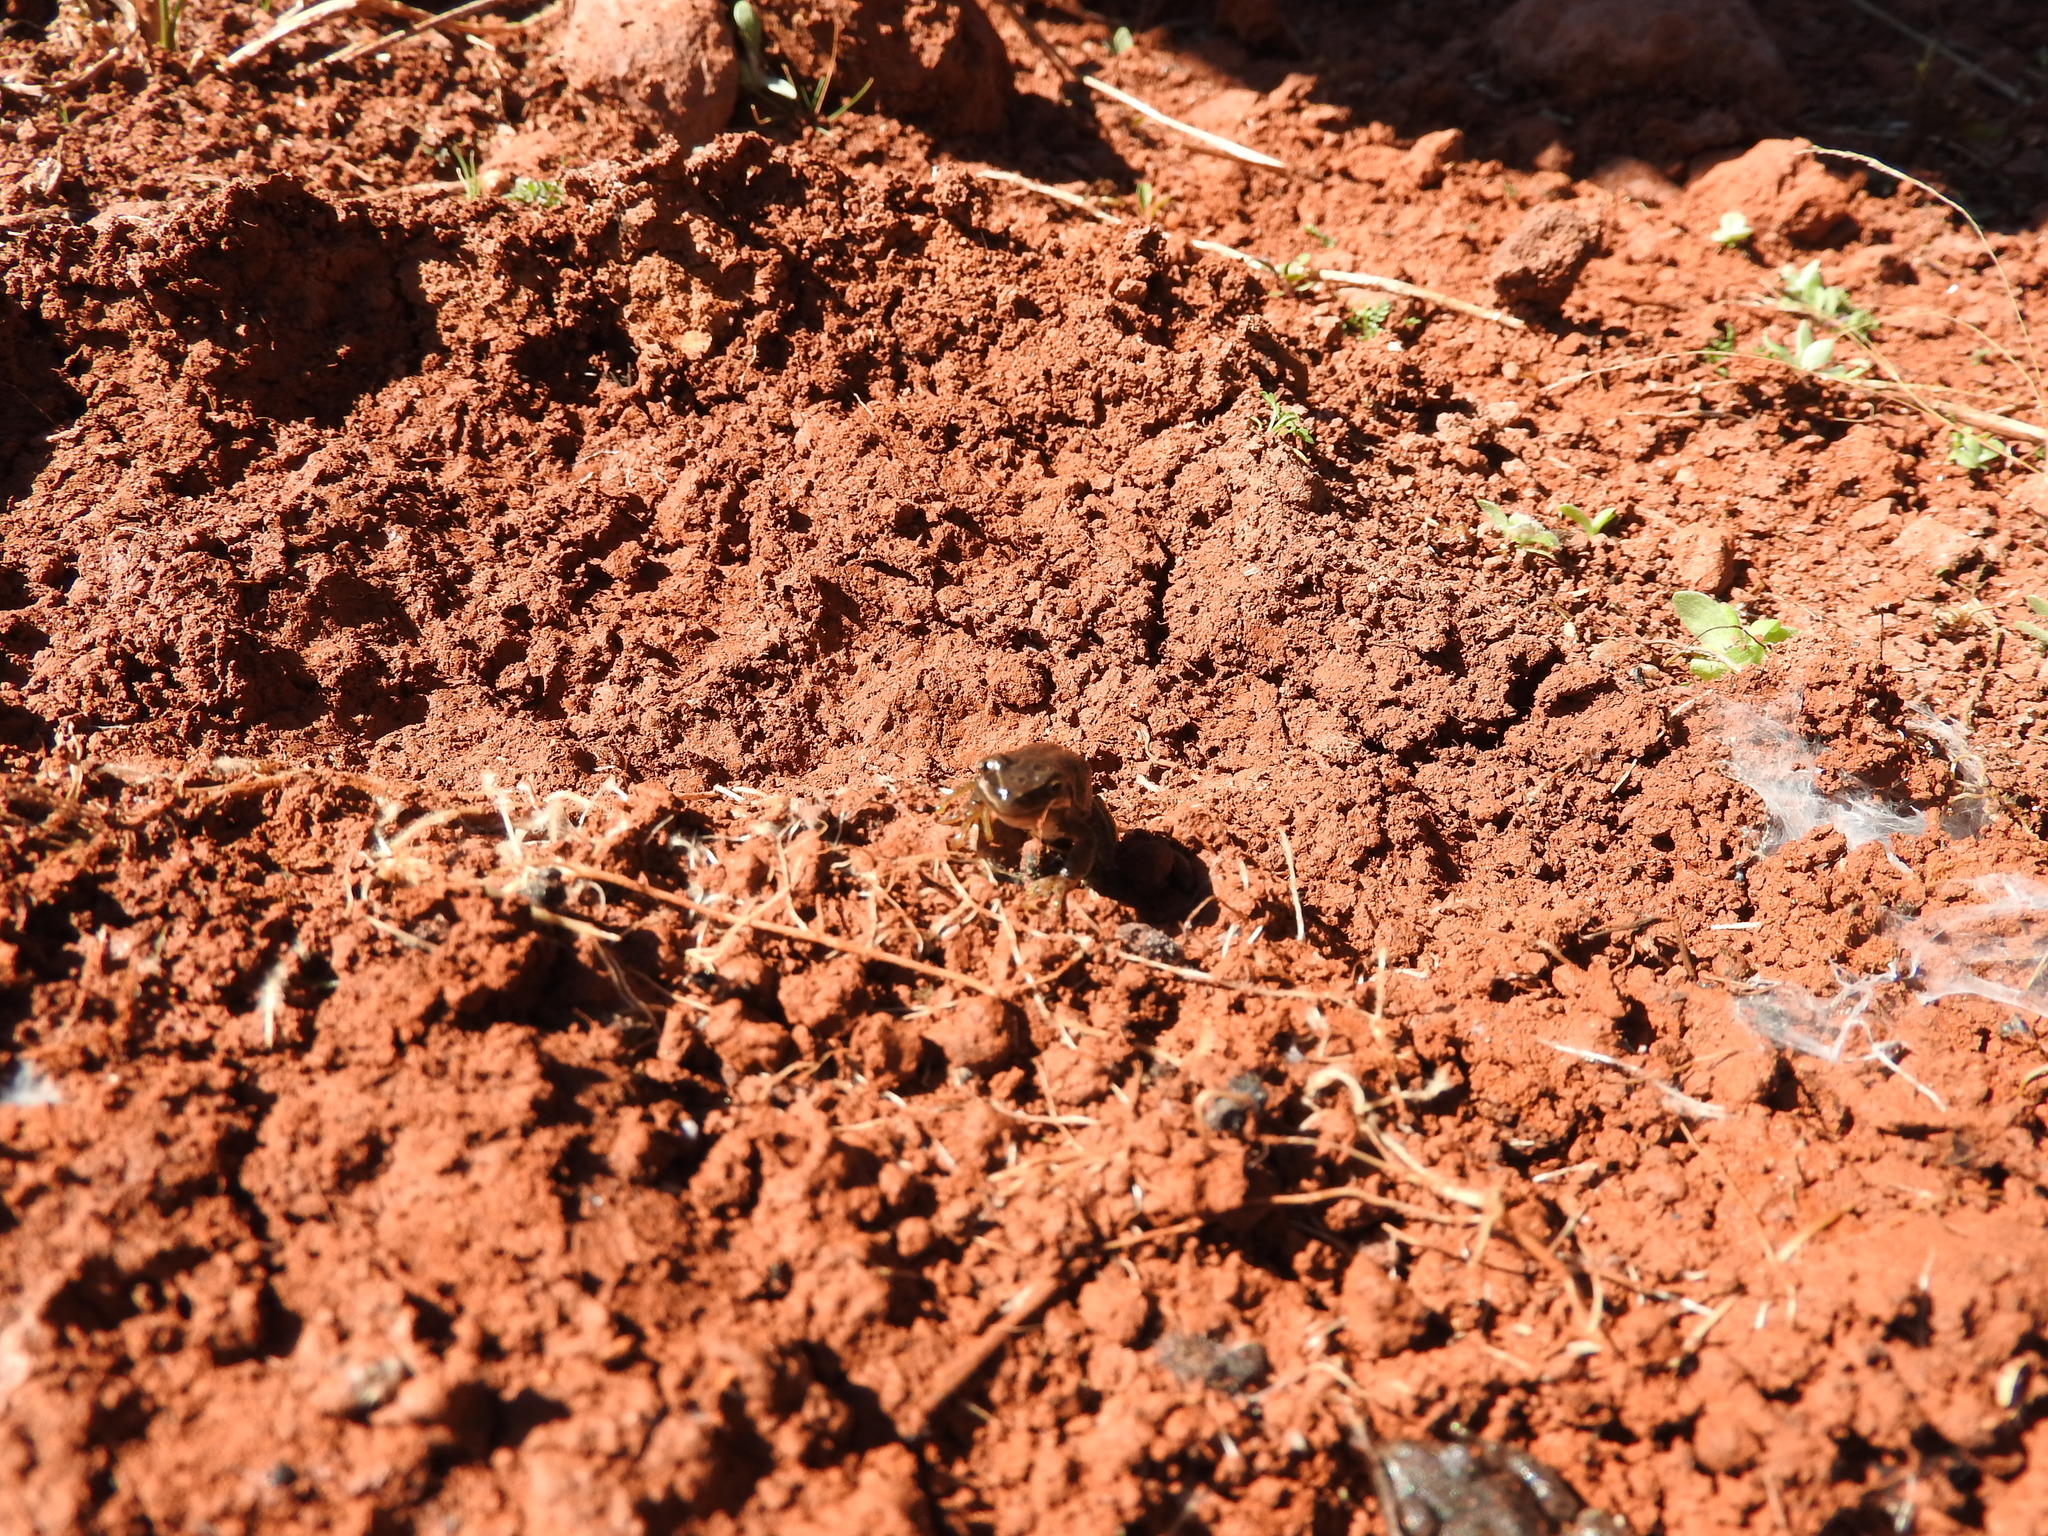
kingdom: Animalia
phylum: Chordata
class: Amphibia
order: Anura
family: Hylidae
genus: Dryophytes
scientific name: Dryophytes eximius
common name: Mountain treefrog
